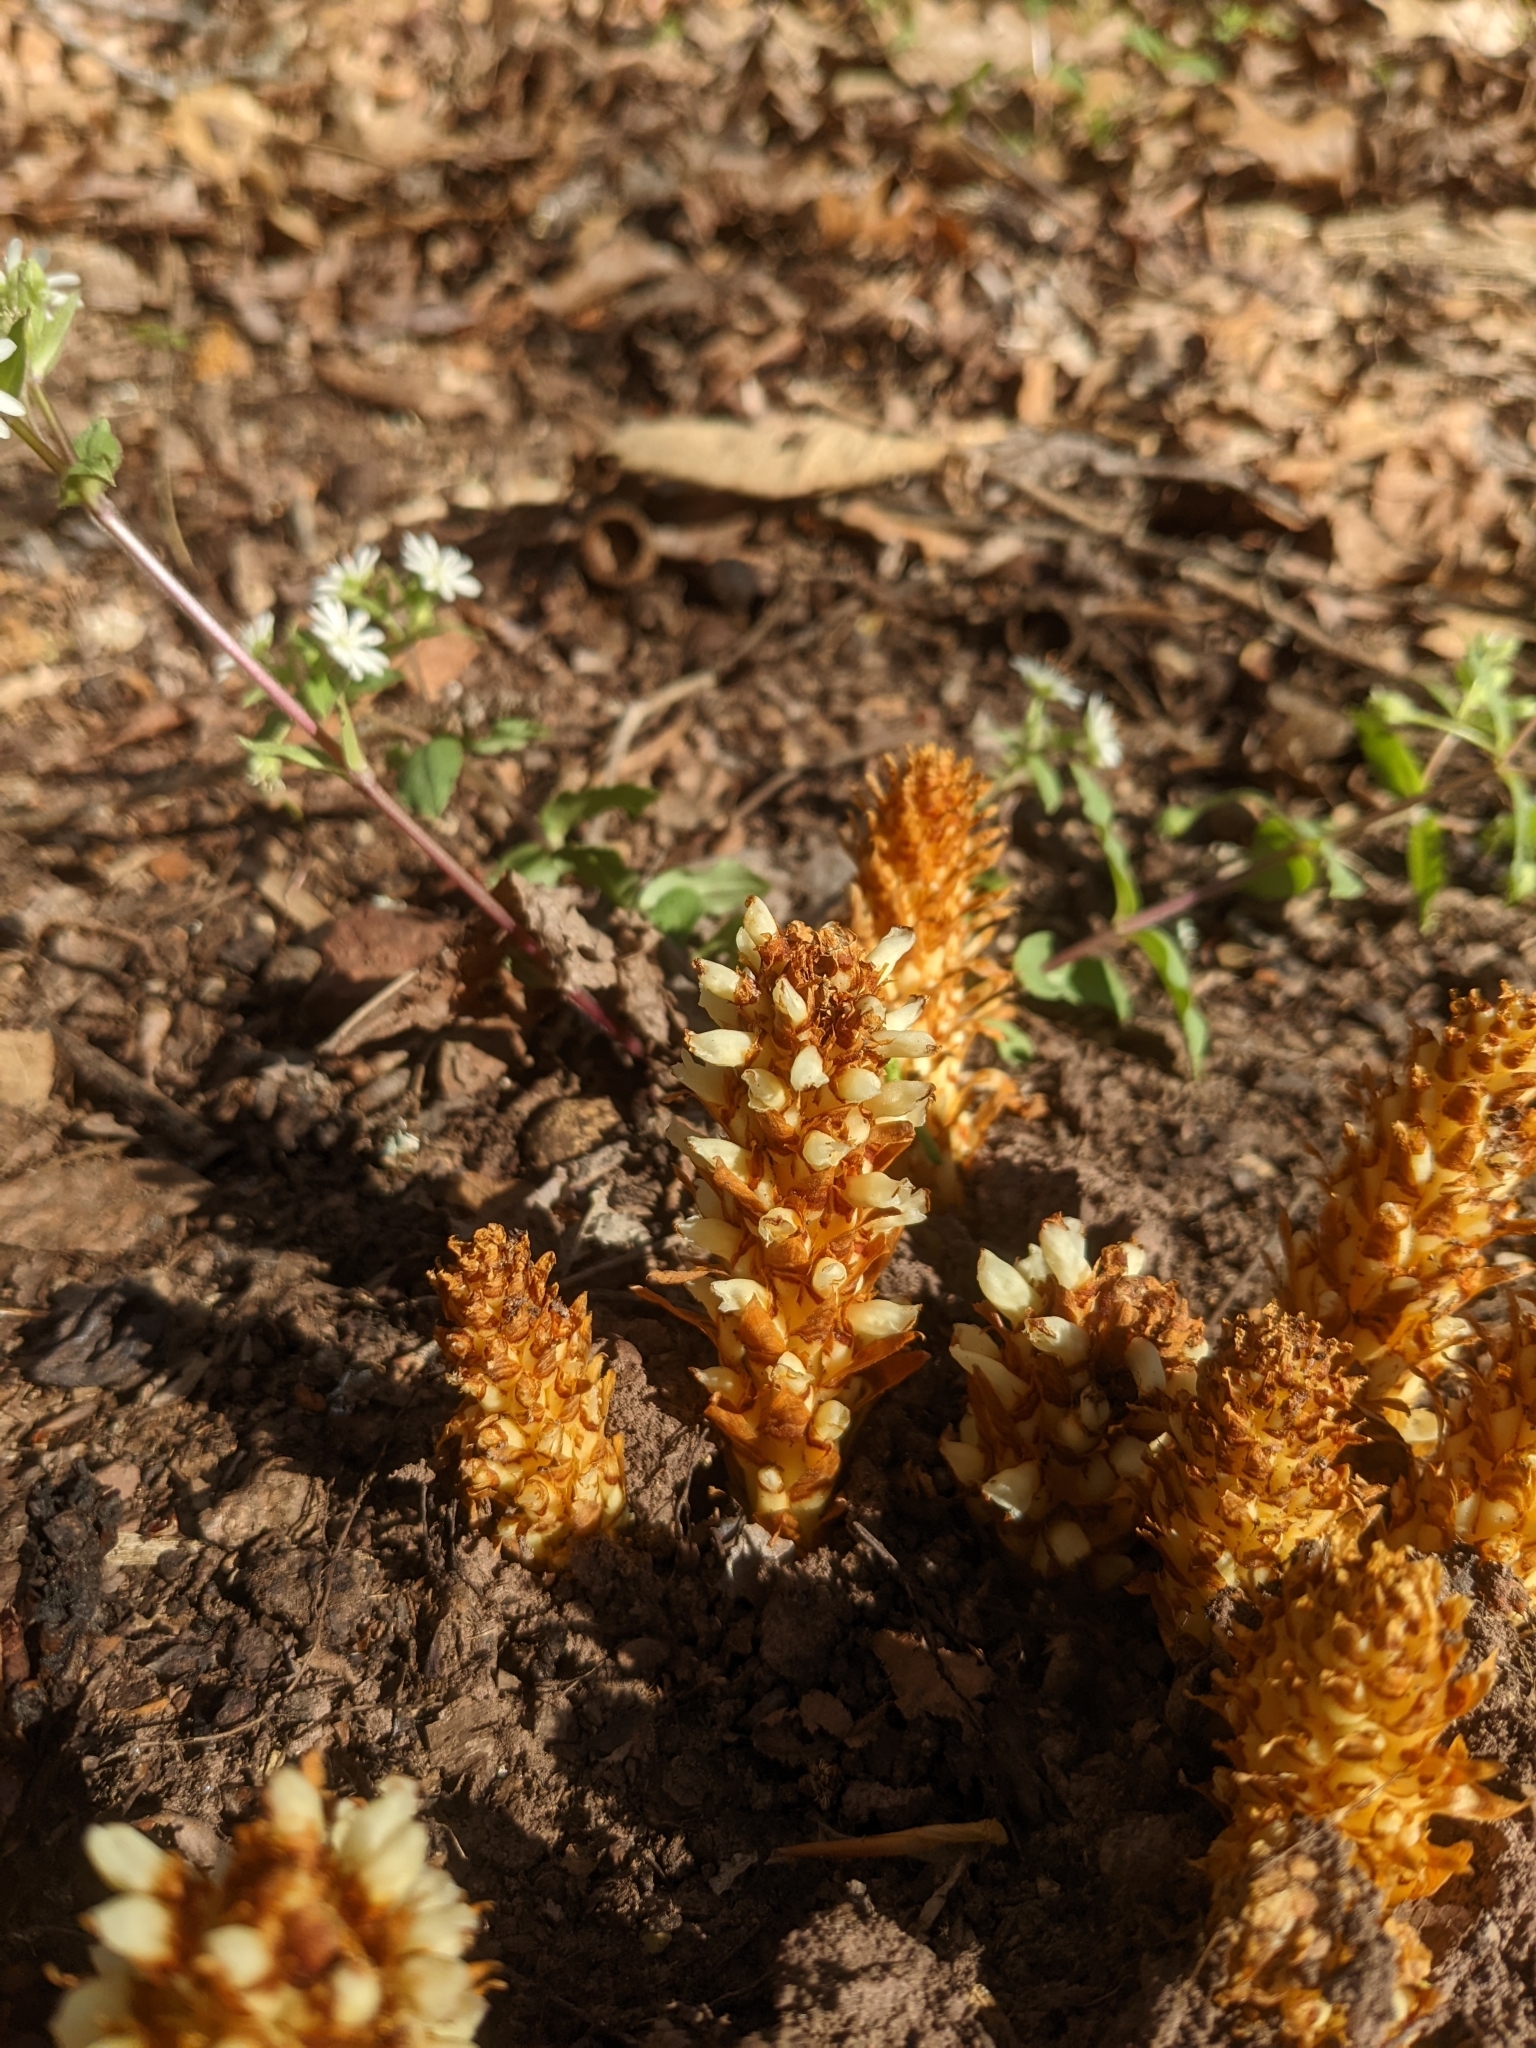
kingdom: Plantae
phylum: Tracheophyta
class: Magnoliopsida
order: Lamiales
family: Orobanchaceae
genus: Conopholis
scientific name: Conopholis americana
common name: American cancer-root
